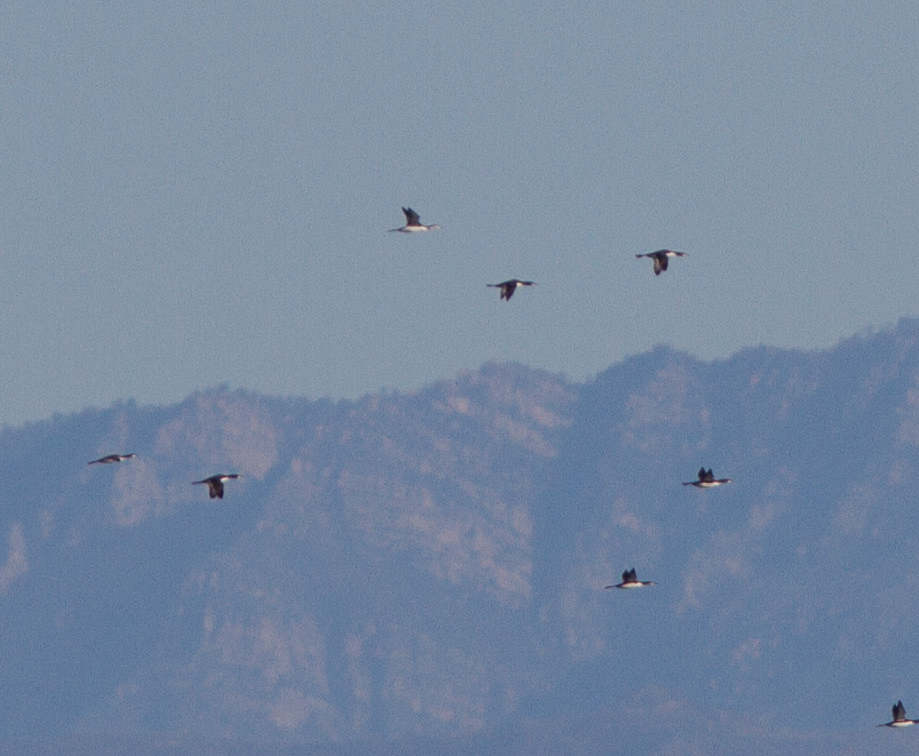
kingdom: Animalia
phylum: Chordata
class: Aves
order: Gaviiformes
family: Gaviidae
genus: Gavia
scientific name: Gavia pacifica
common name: Pacific loon
